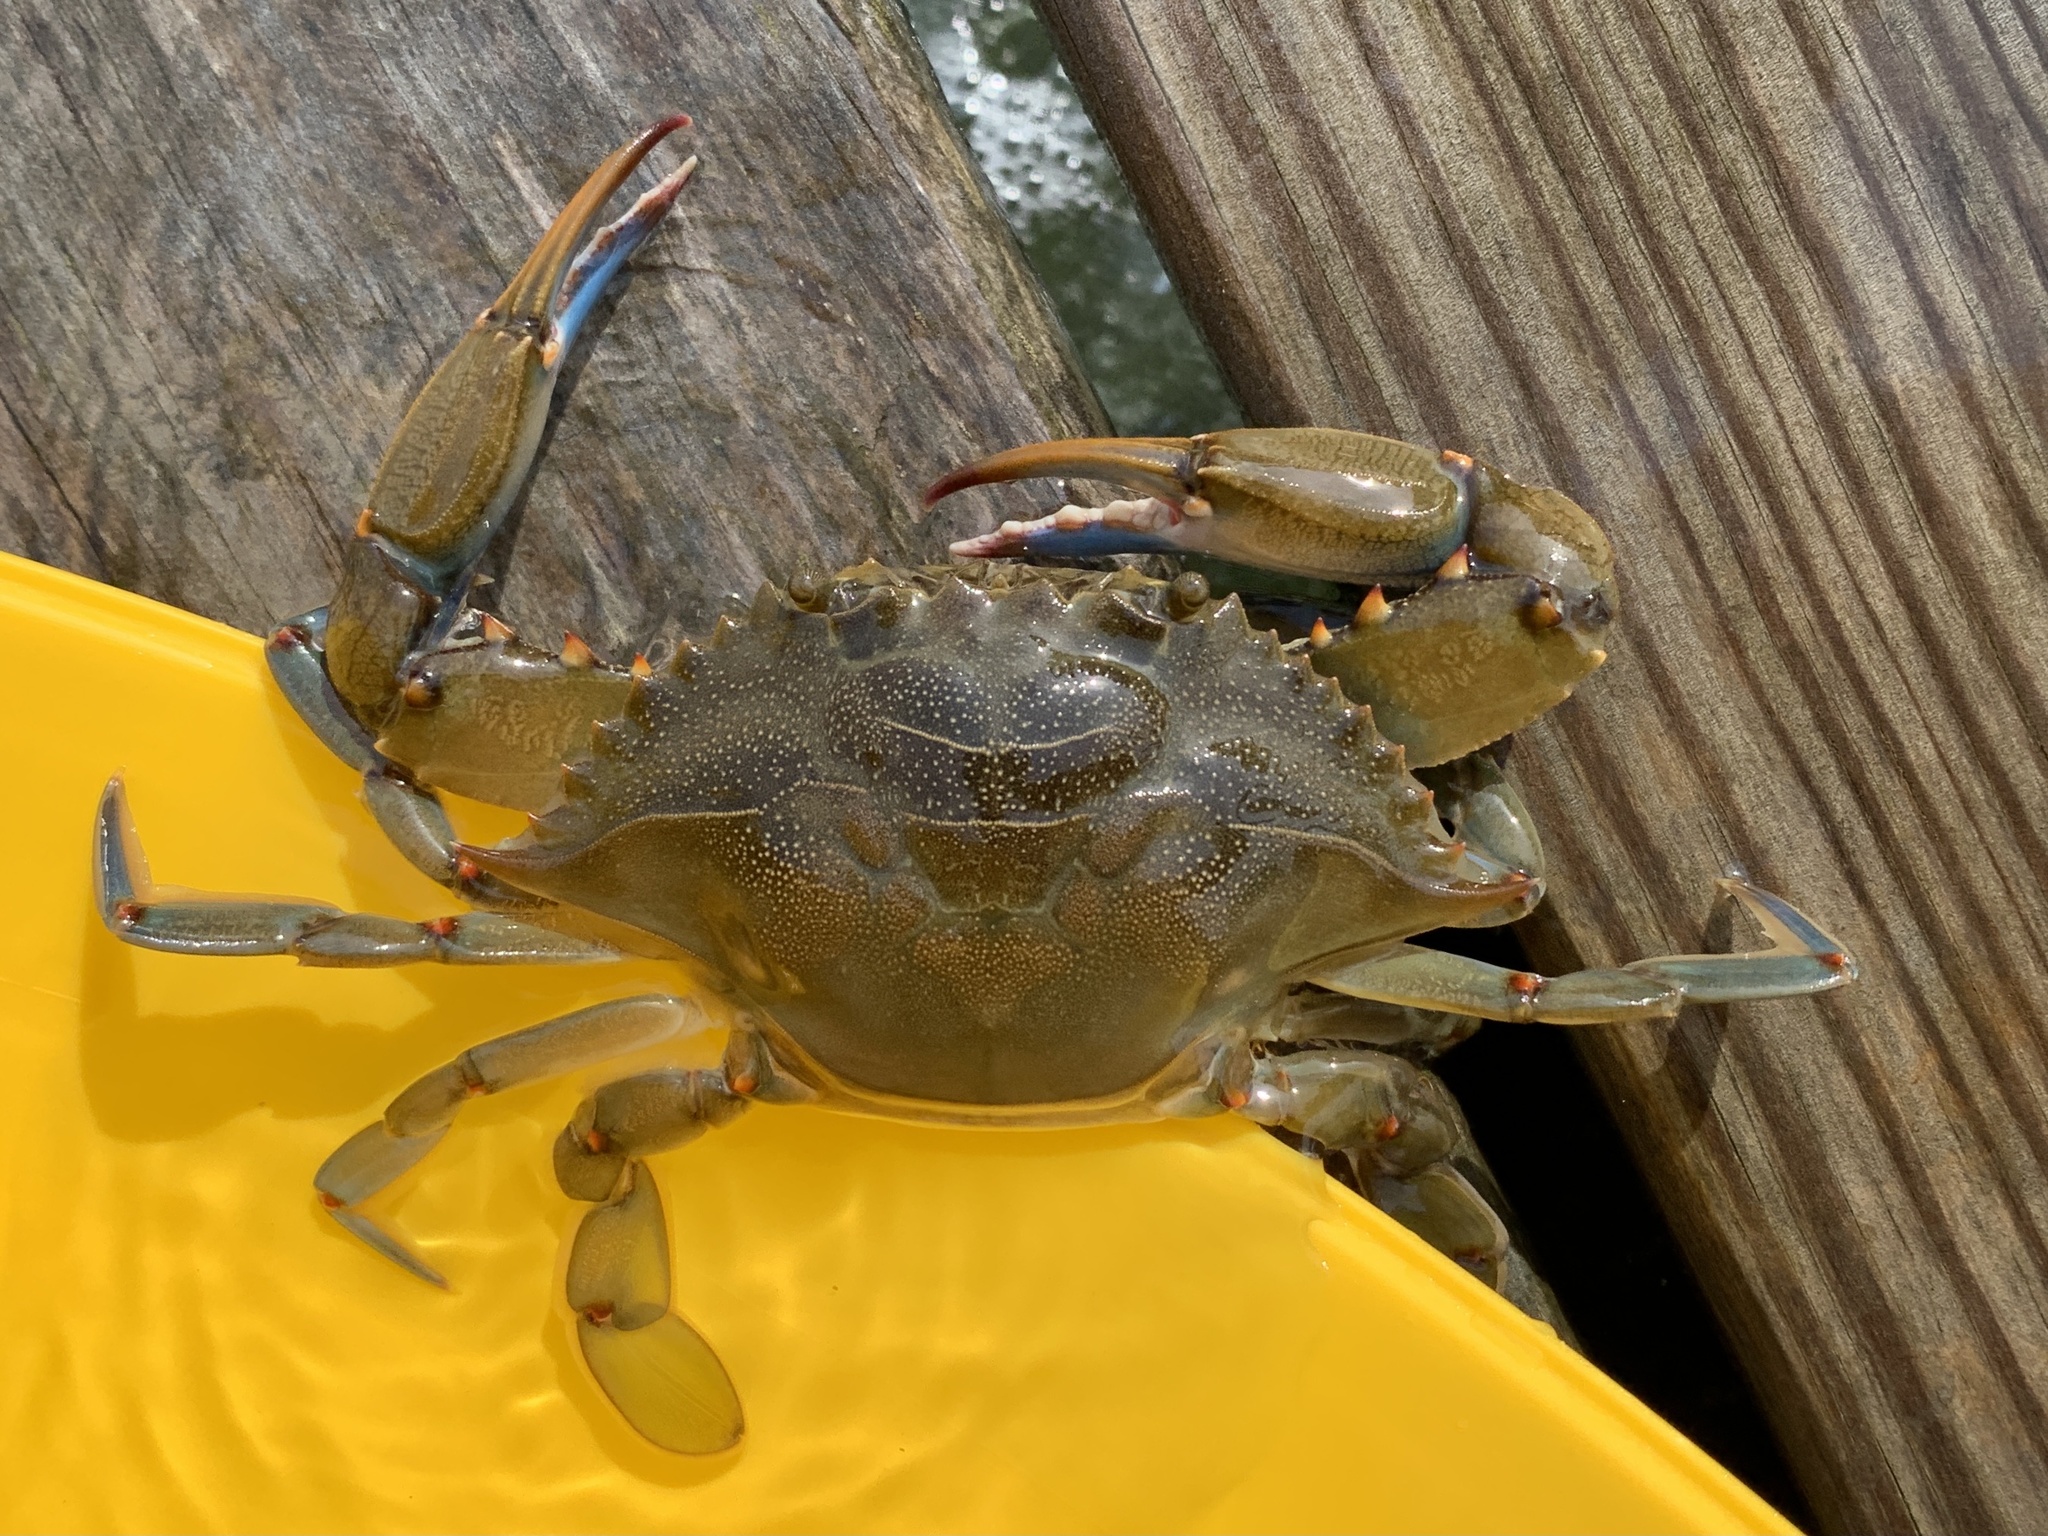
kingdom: Animalia
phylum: Arthropoda
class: Malacostraca
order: Decapoda
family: Portunidae
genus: Callinectes
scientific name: Callinectes sapidus
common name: Blue crab
